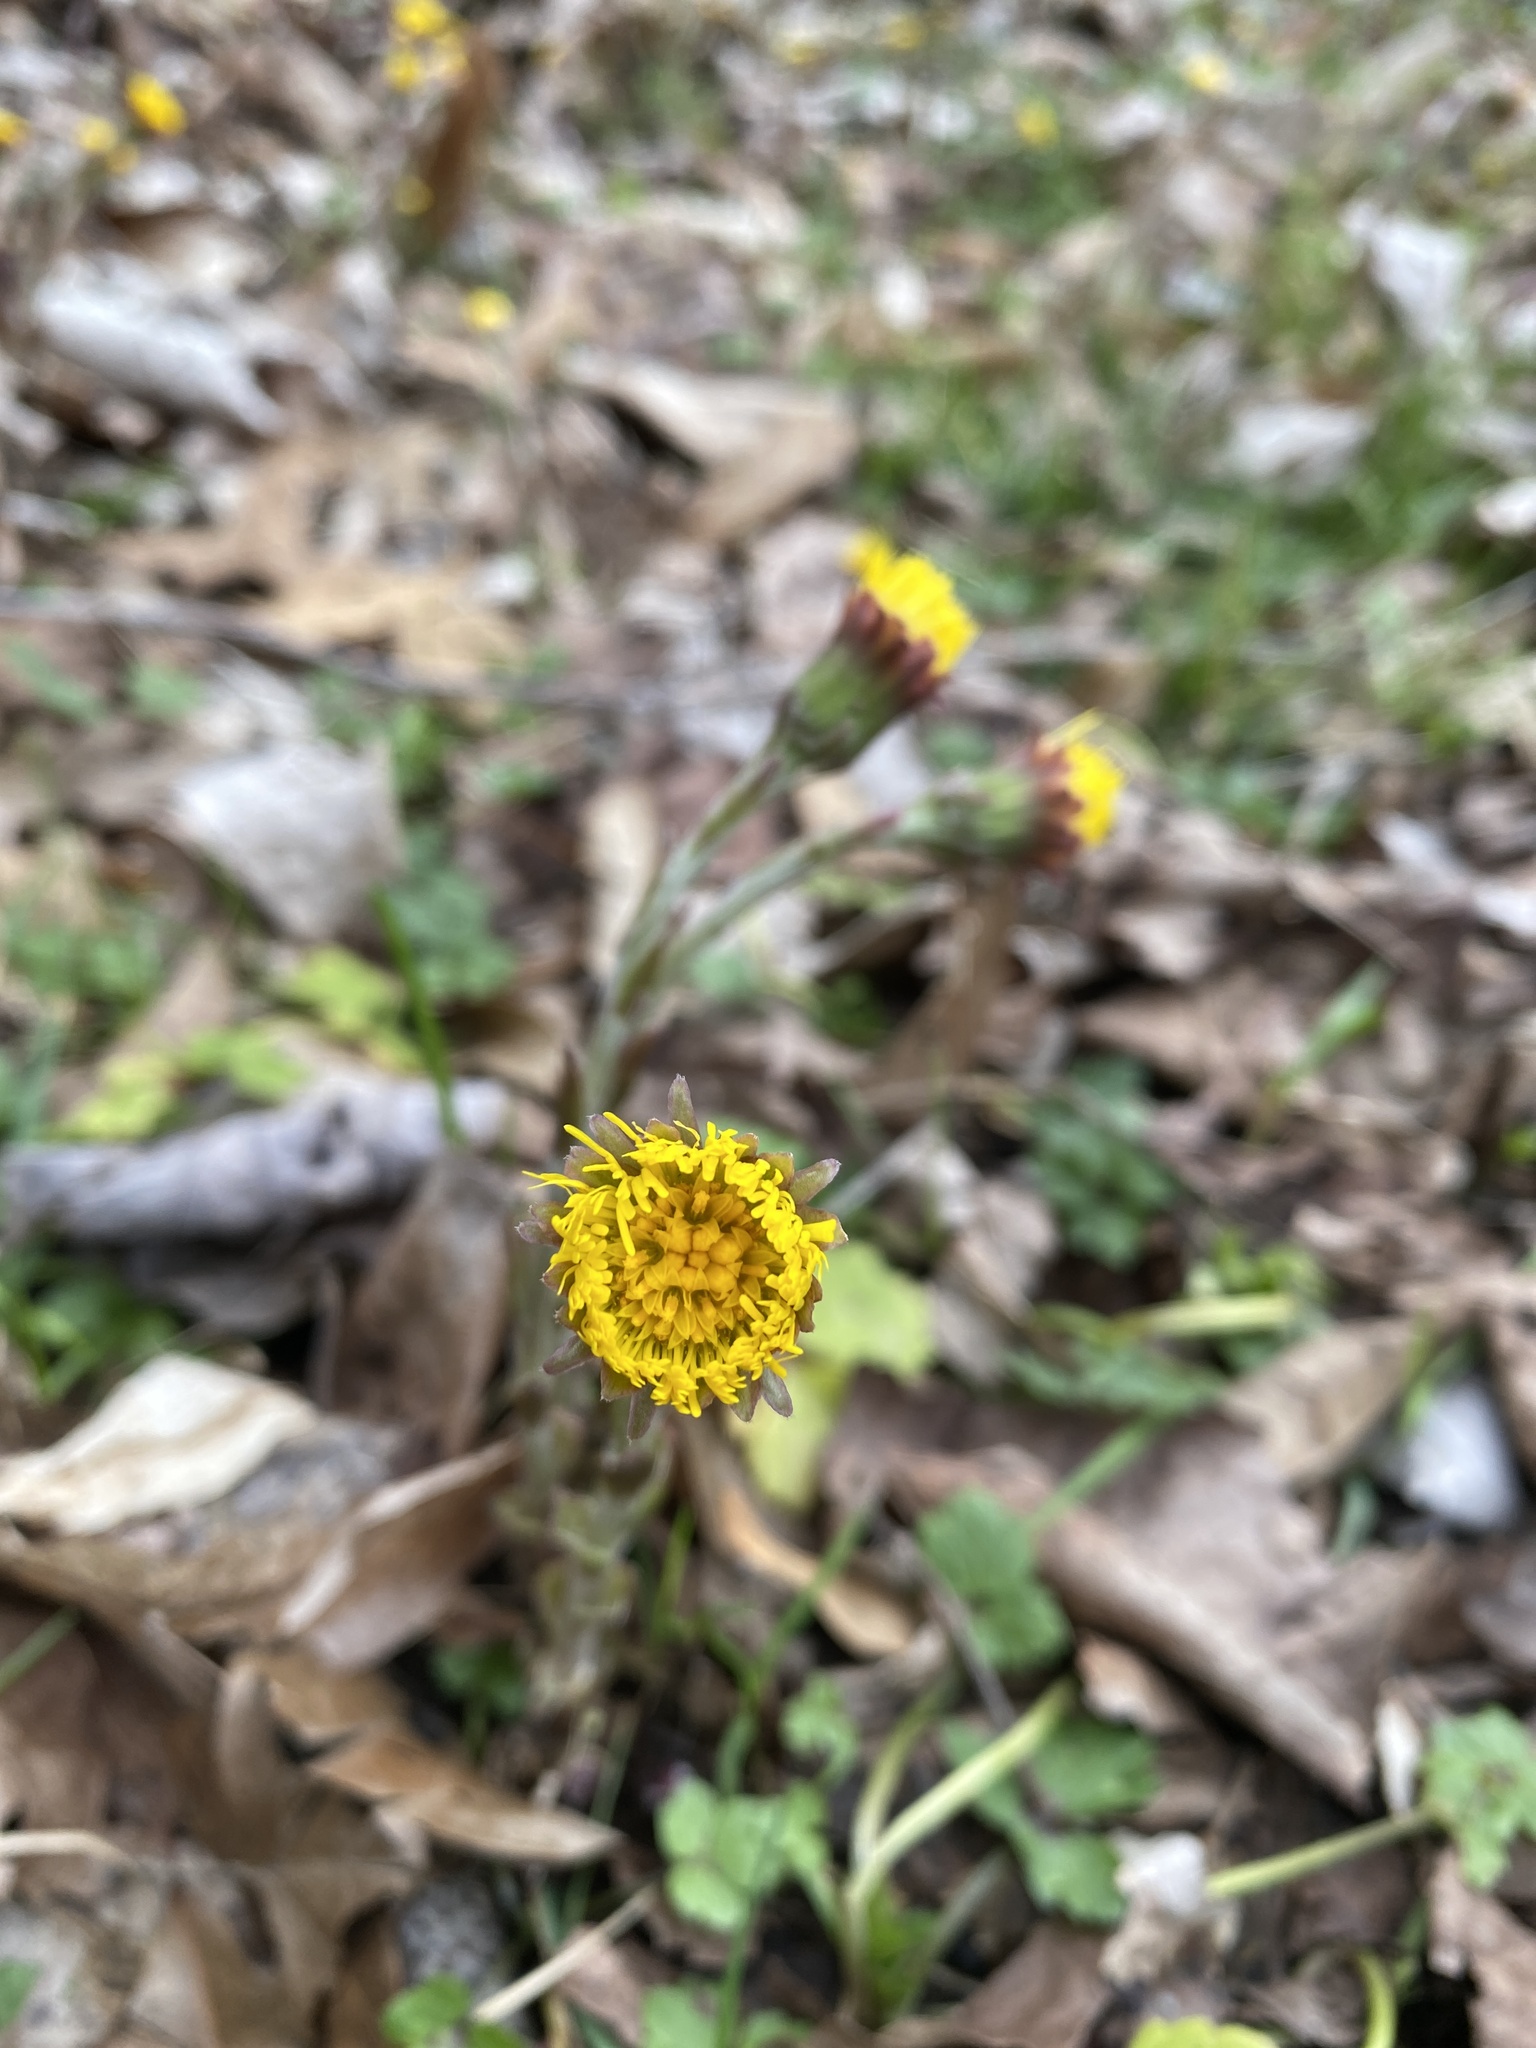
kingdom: Plantae
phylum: Tracheophyta
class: Magnoliopsida
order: Asterales
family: Asteraceae
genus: Tussilago
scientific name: Tussilago farfara
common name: Coltsfoot
